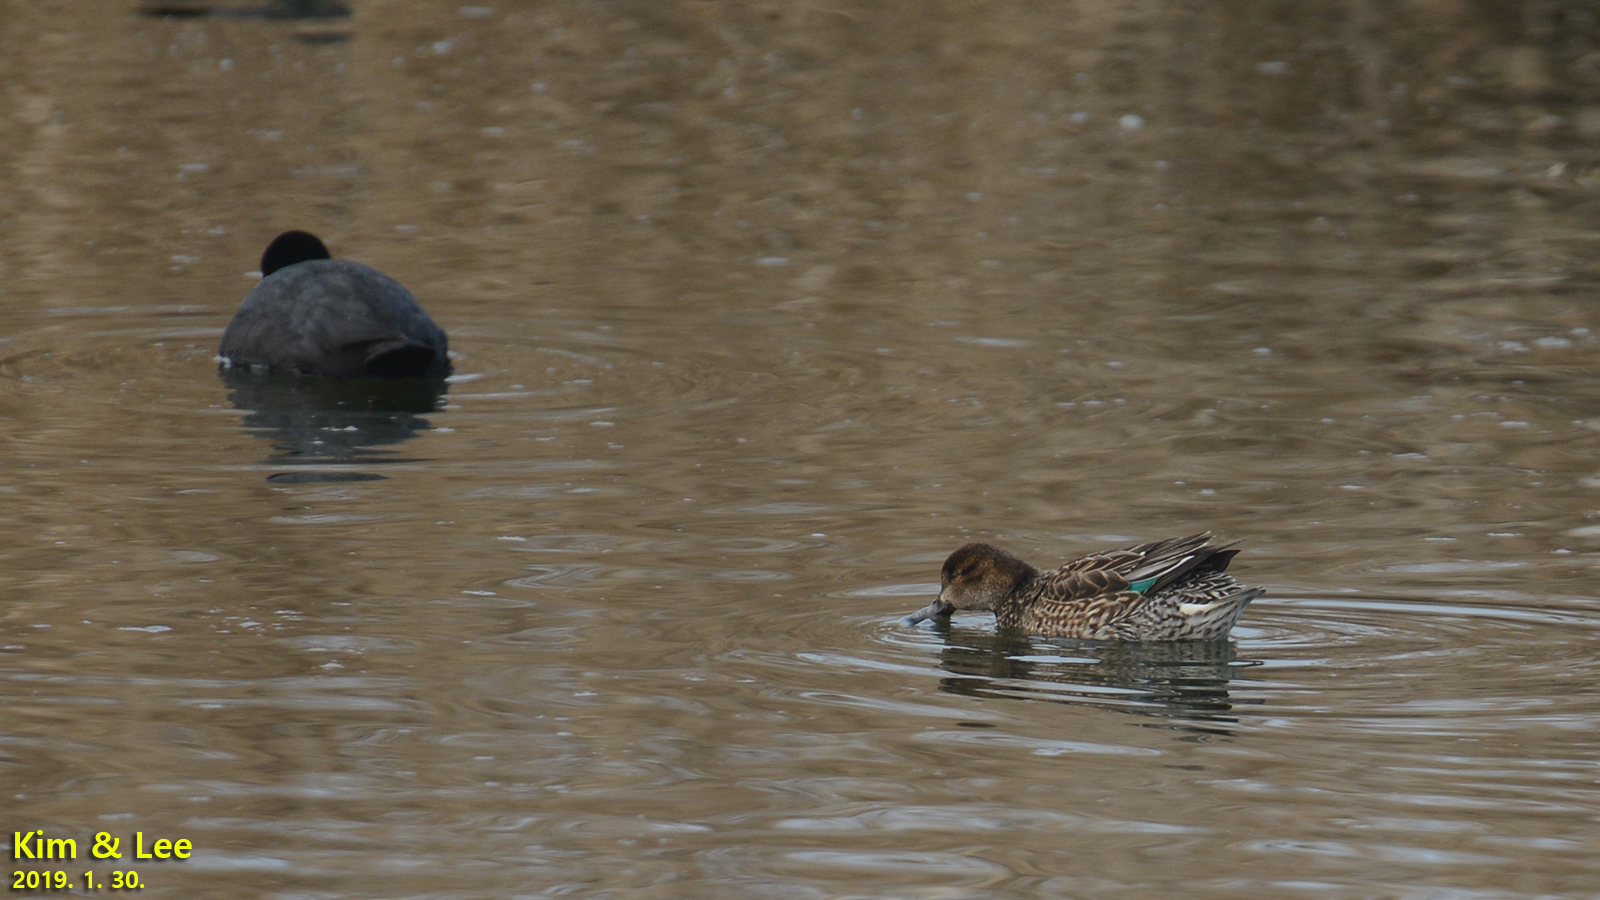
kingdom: Animalia
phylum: Chordata
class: Aves
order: Anseriformes
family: Anatidae
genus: Anas
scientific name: Anas crecca
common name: Eurasian teal
